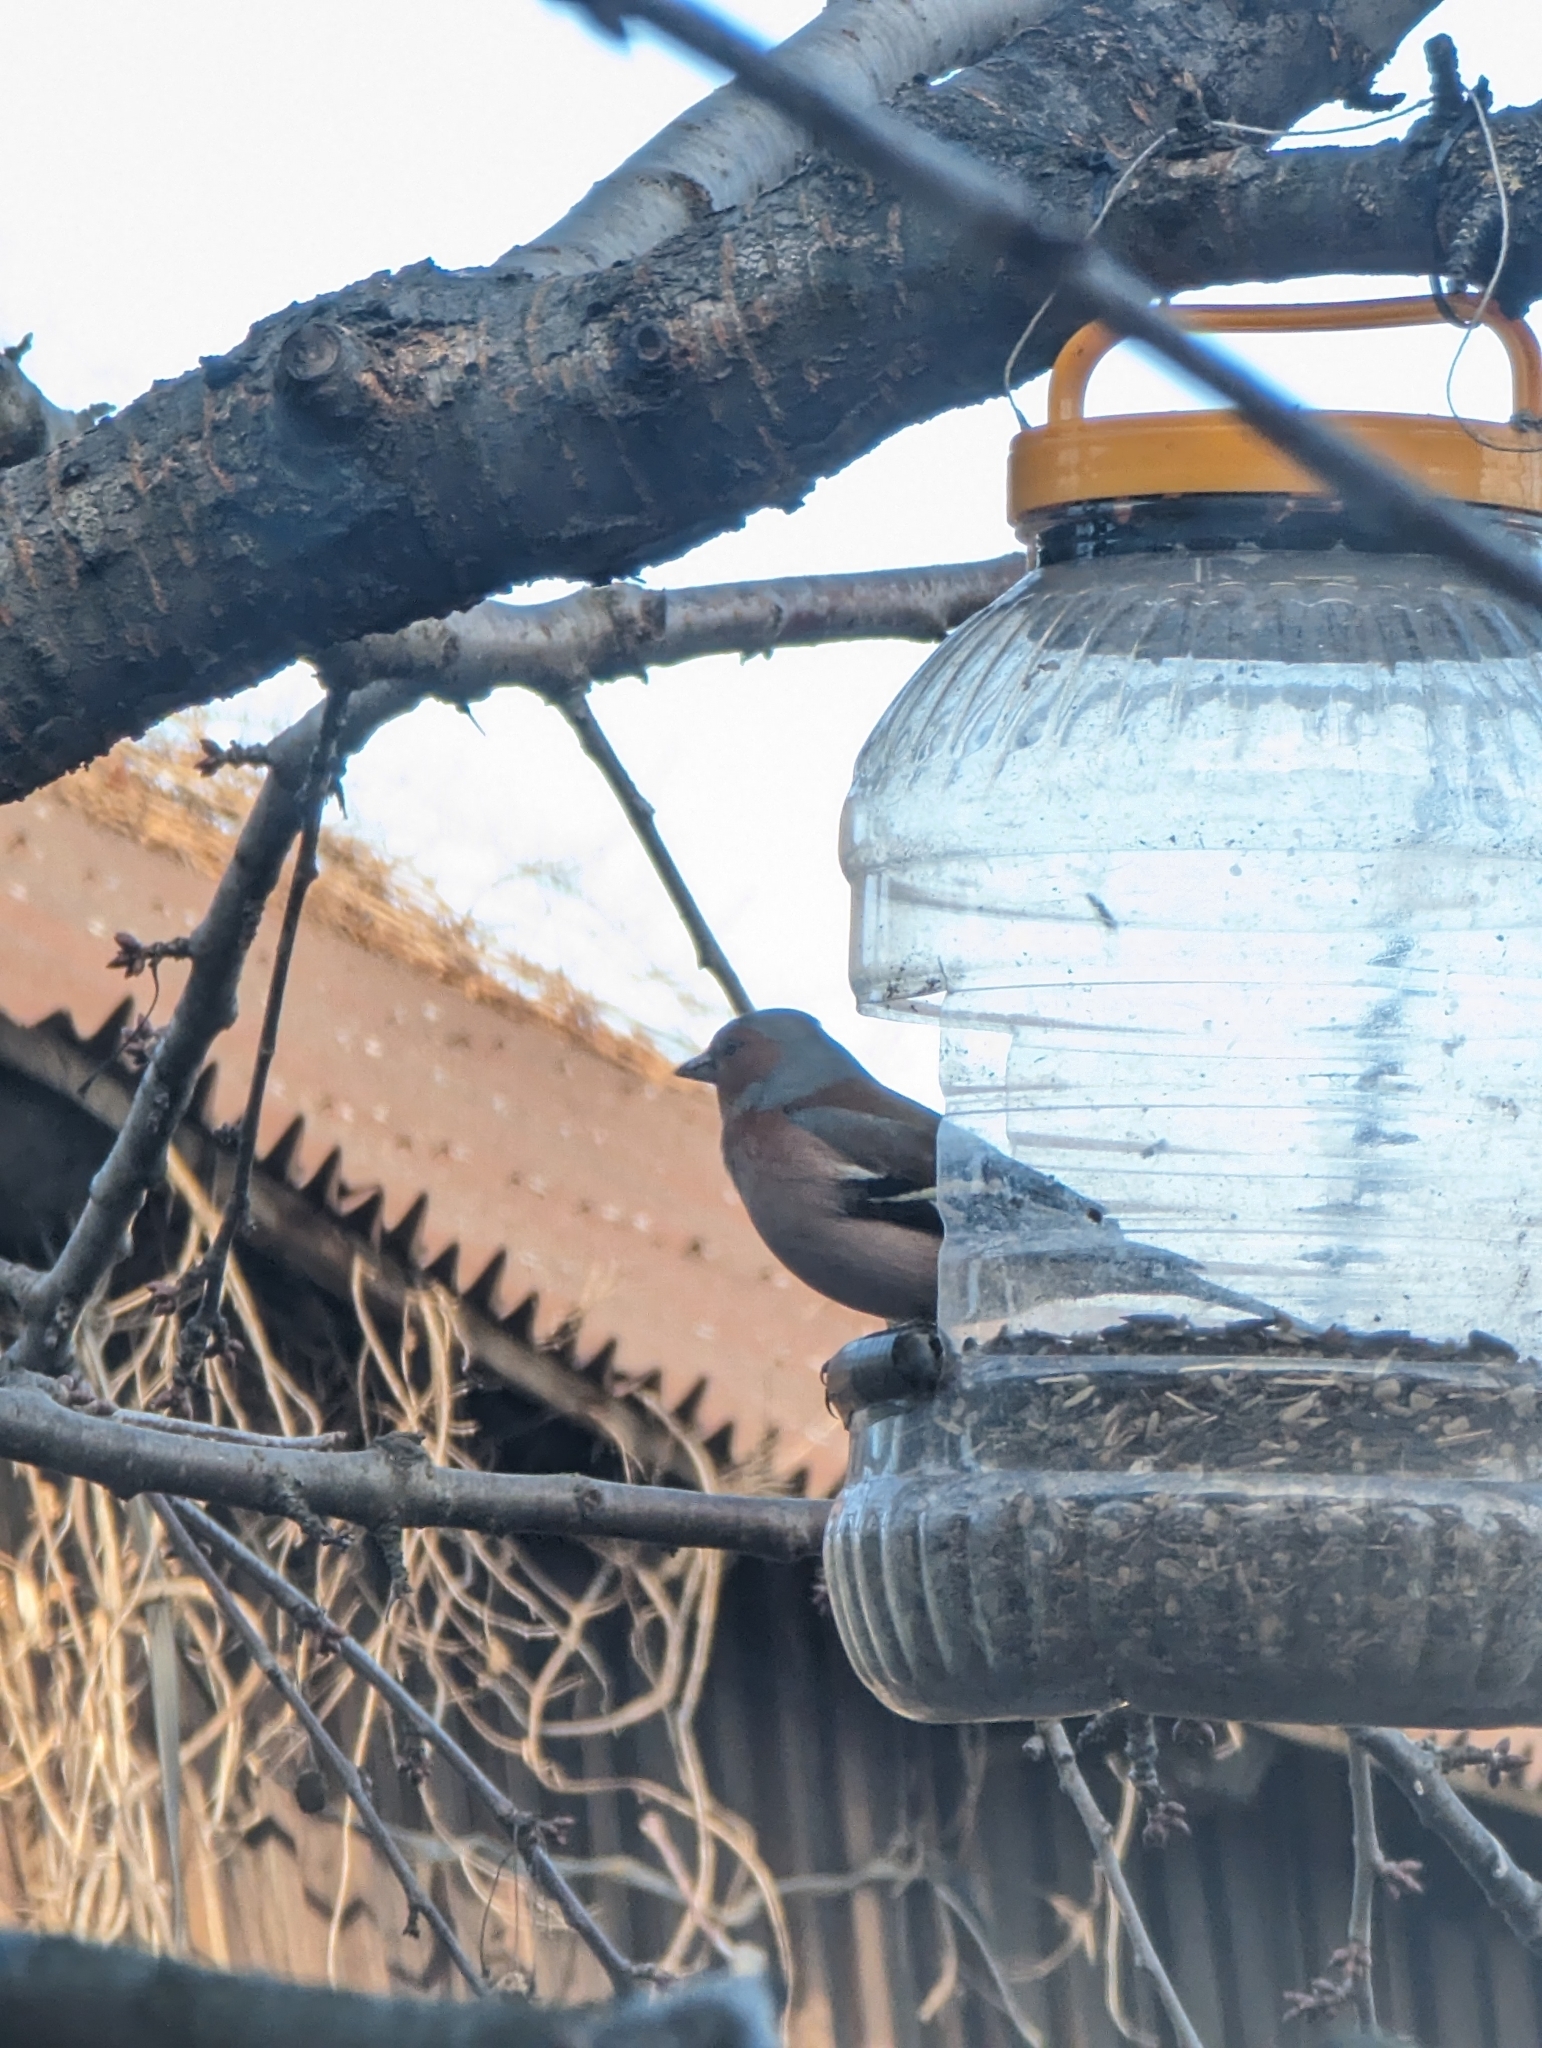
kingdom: Animalia
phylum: Chordata
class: Aves
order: Passeriformes
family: Fringillidae
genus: Fringilla
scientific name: Fringilla coelebs
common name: Common chaffinch
